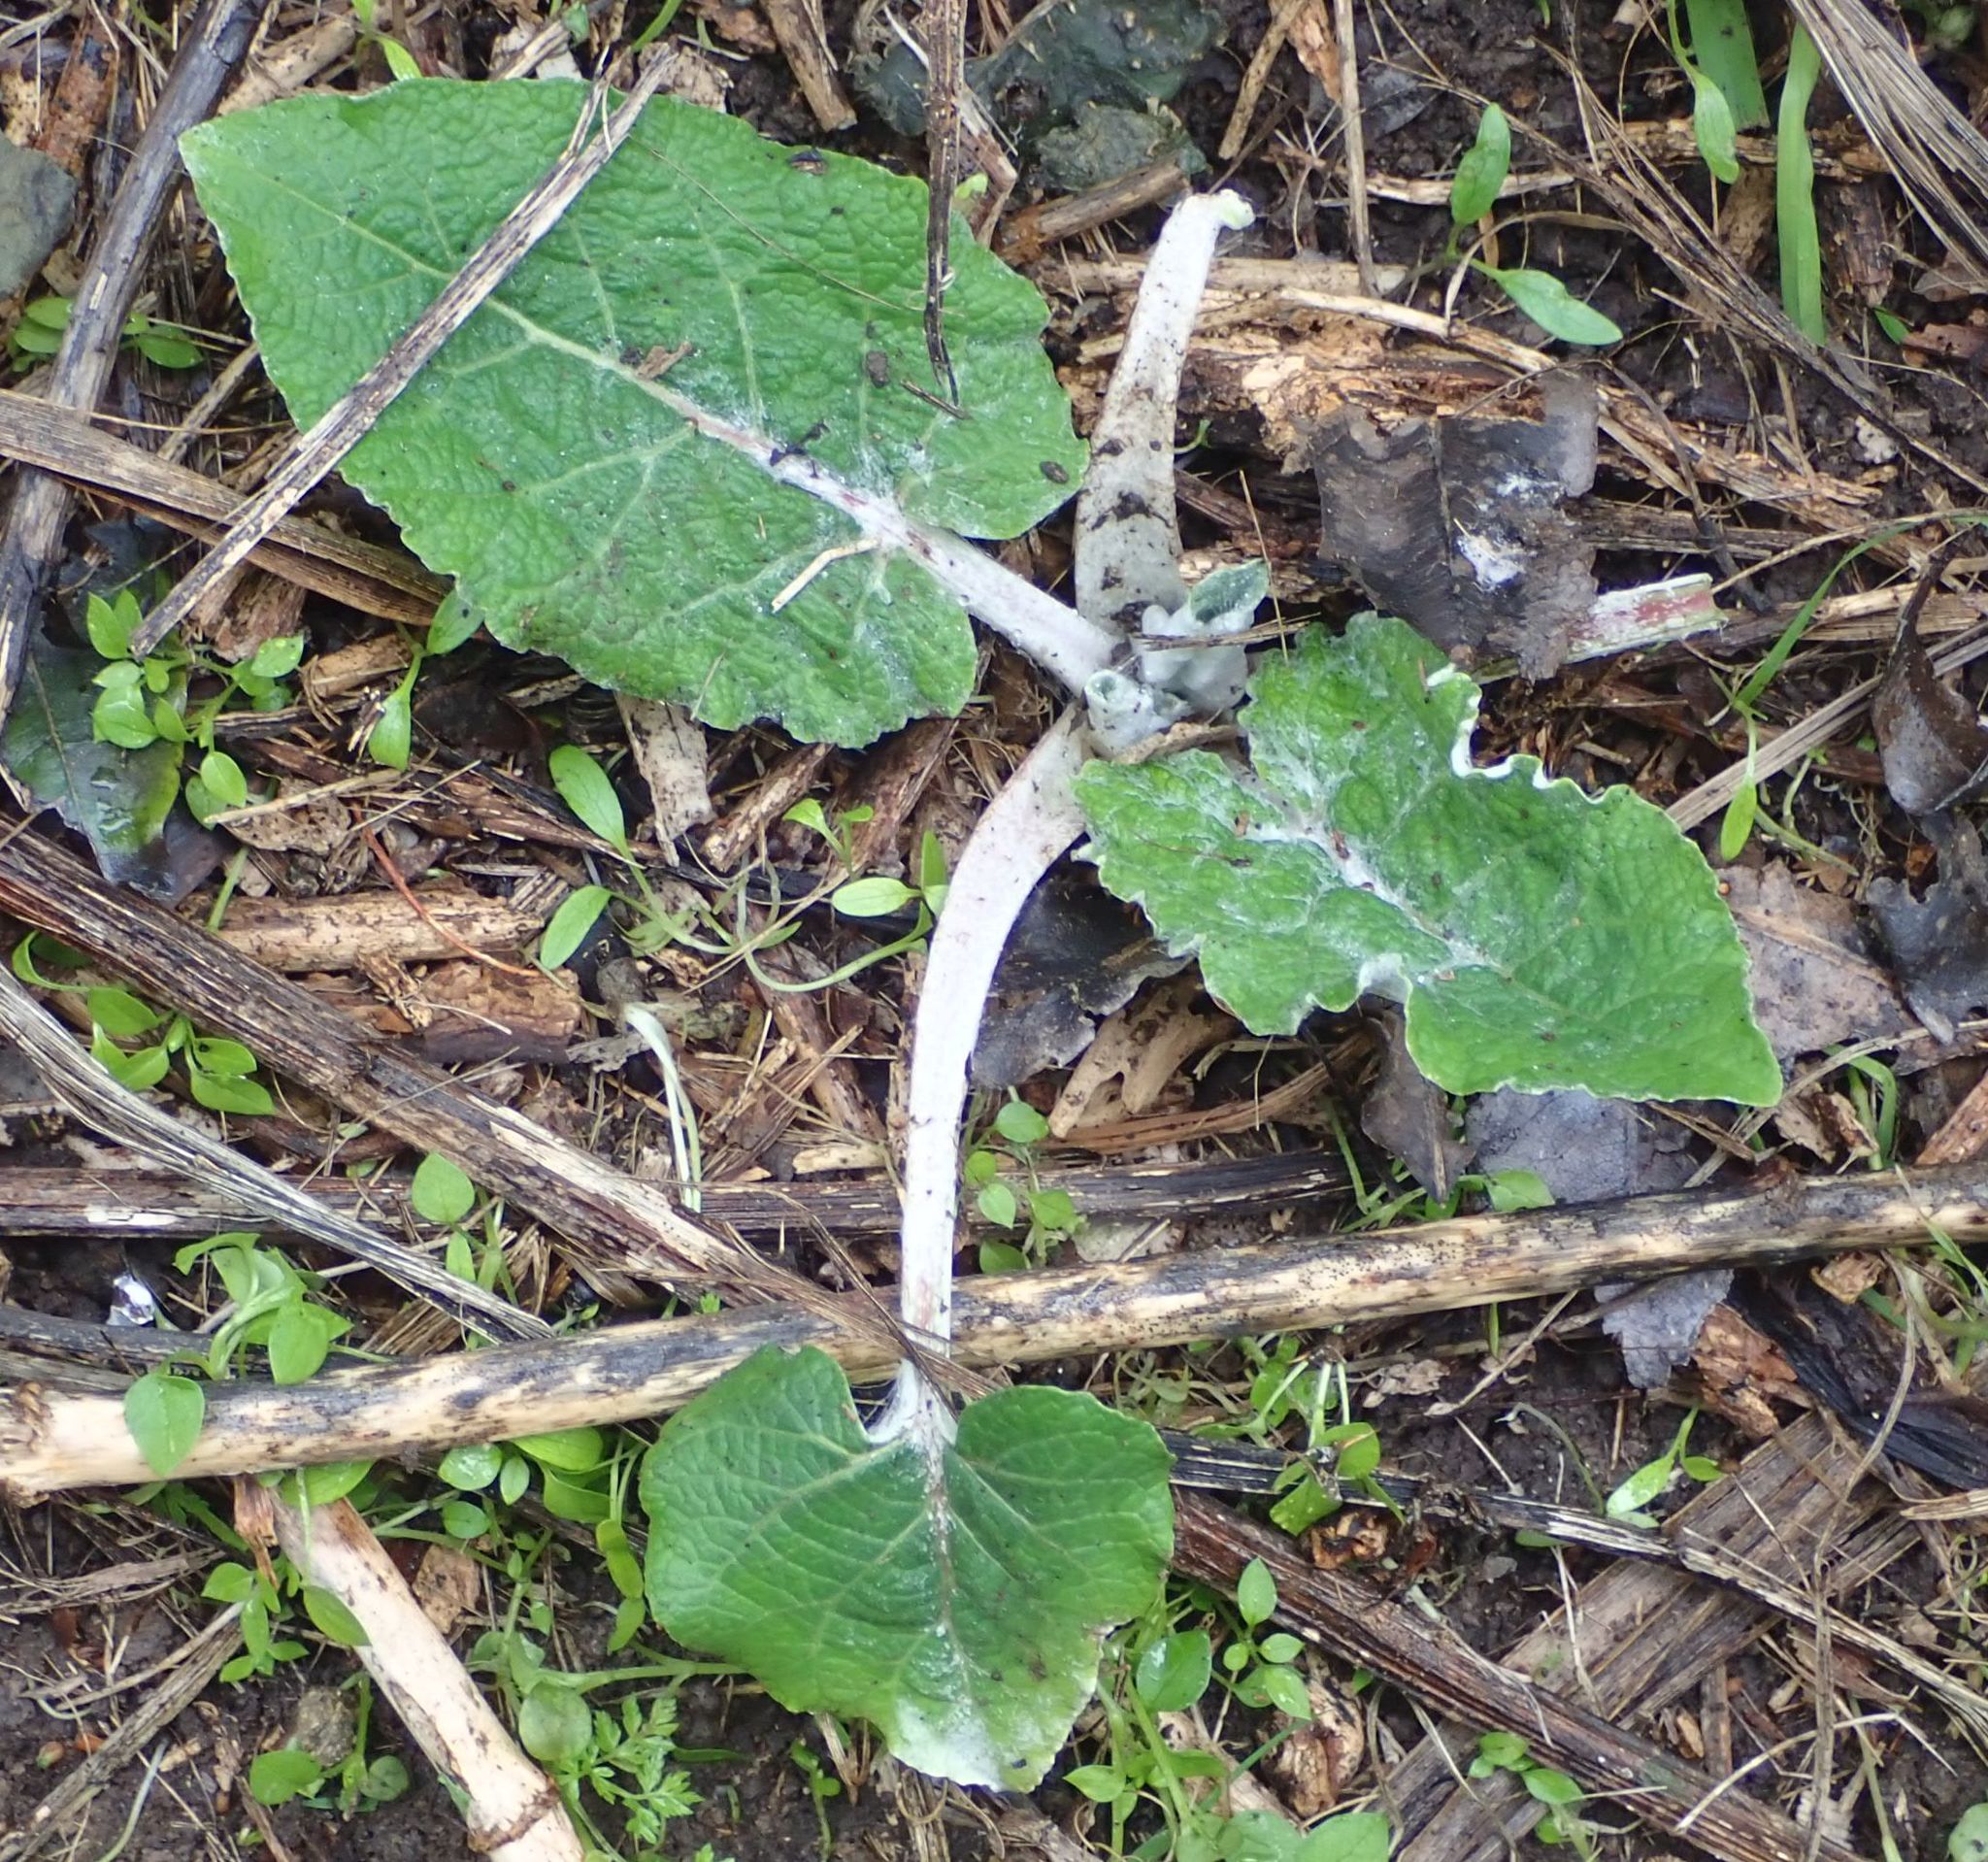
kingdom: Plantae
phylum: Tracheophyta
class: Magnoliopsida
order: Asterales
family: Asteraceae
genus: Arctium
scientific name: Arctium minus
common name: Lesser burdock
